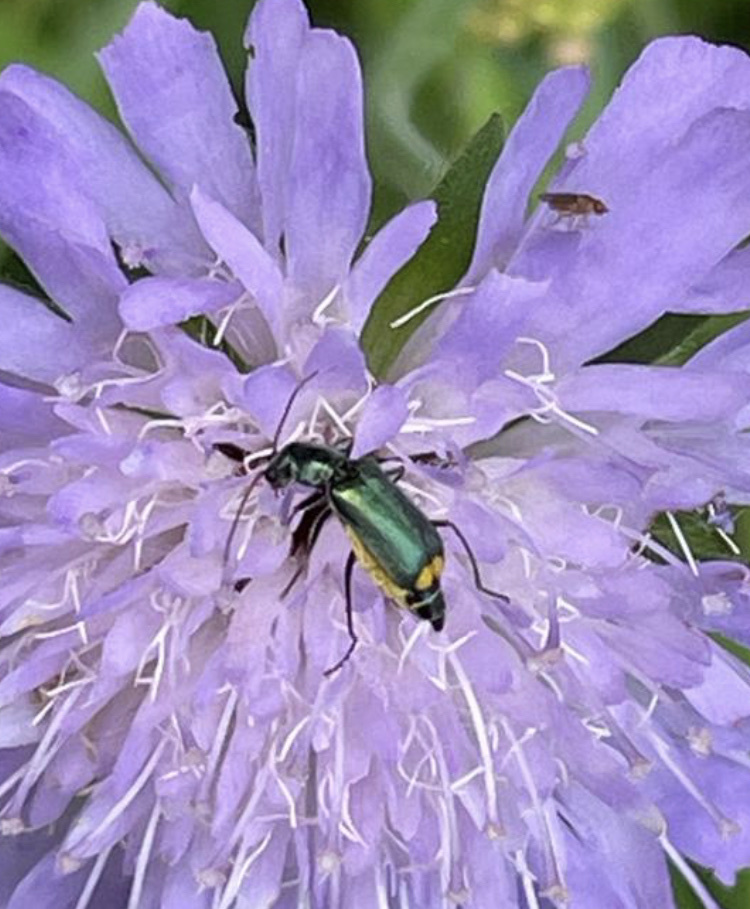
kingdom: Animalia
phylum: Arthropoda
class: Insecta
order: Coleoptera
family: Malachiidae
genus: Clanoptilus
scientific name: Clanoptilus marginellus
